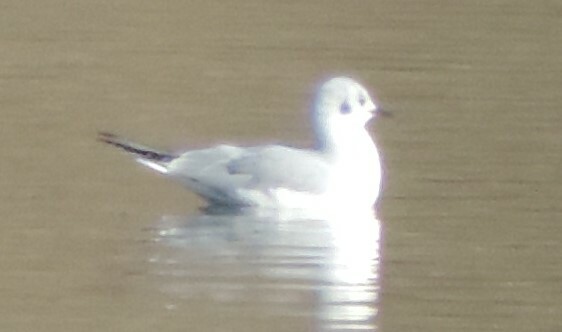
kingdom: Animalia
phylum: Chordata
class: Aves
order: Charadriiformes
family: Laridae
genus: Chroicocephalus
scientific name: Chroicocephalus philadelphia
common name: Bonaparte's gull
